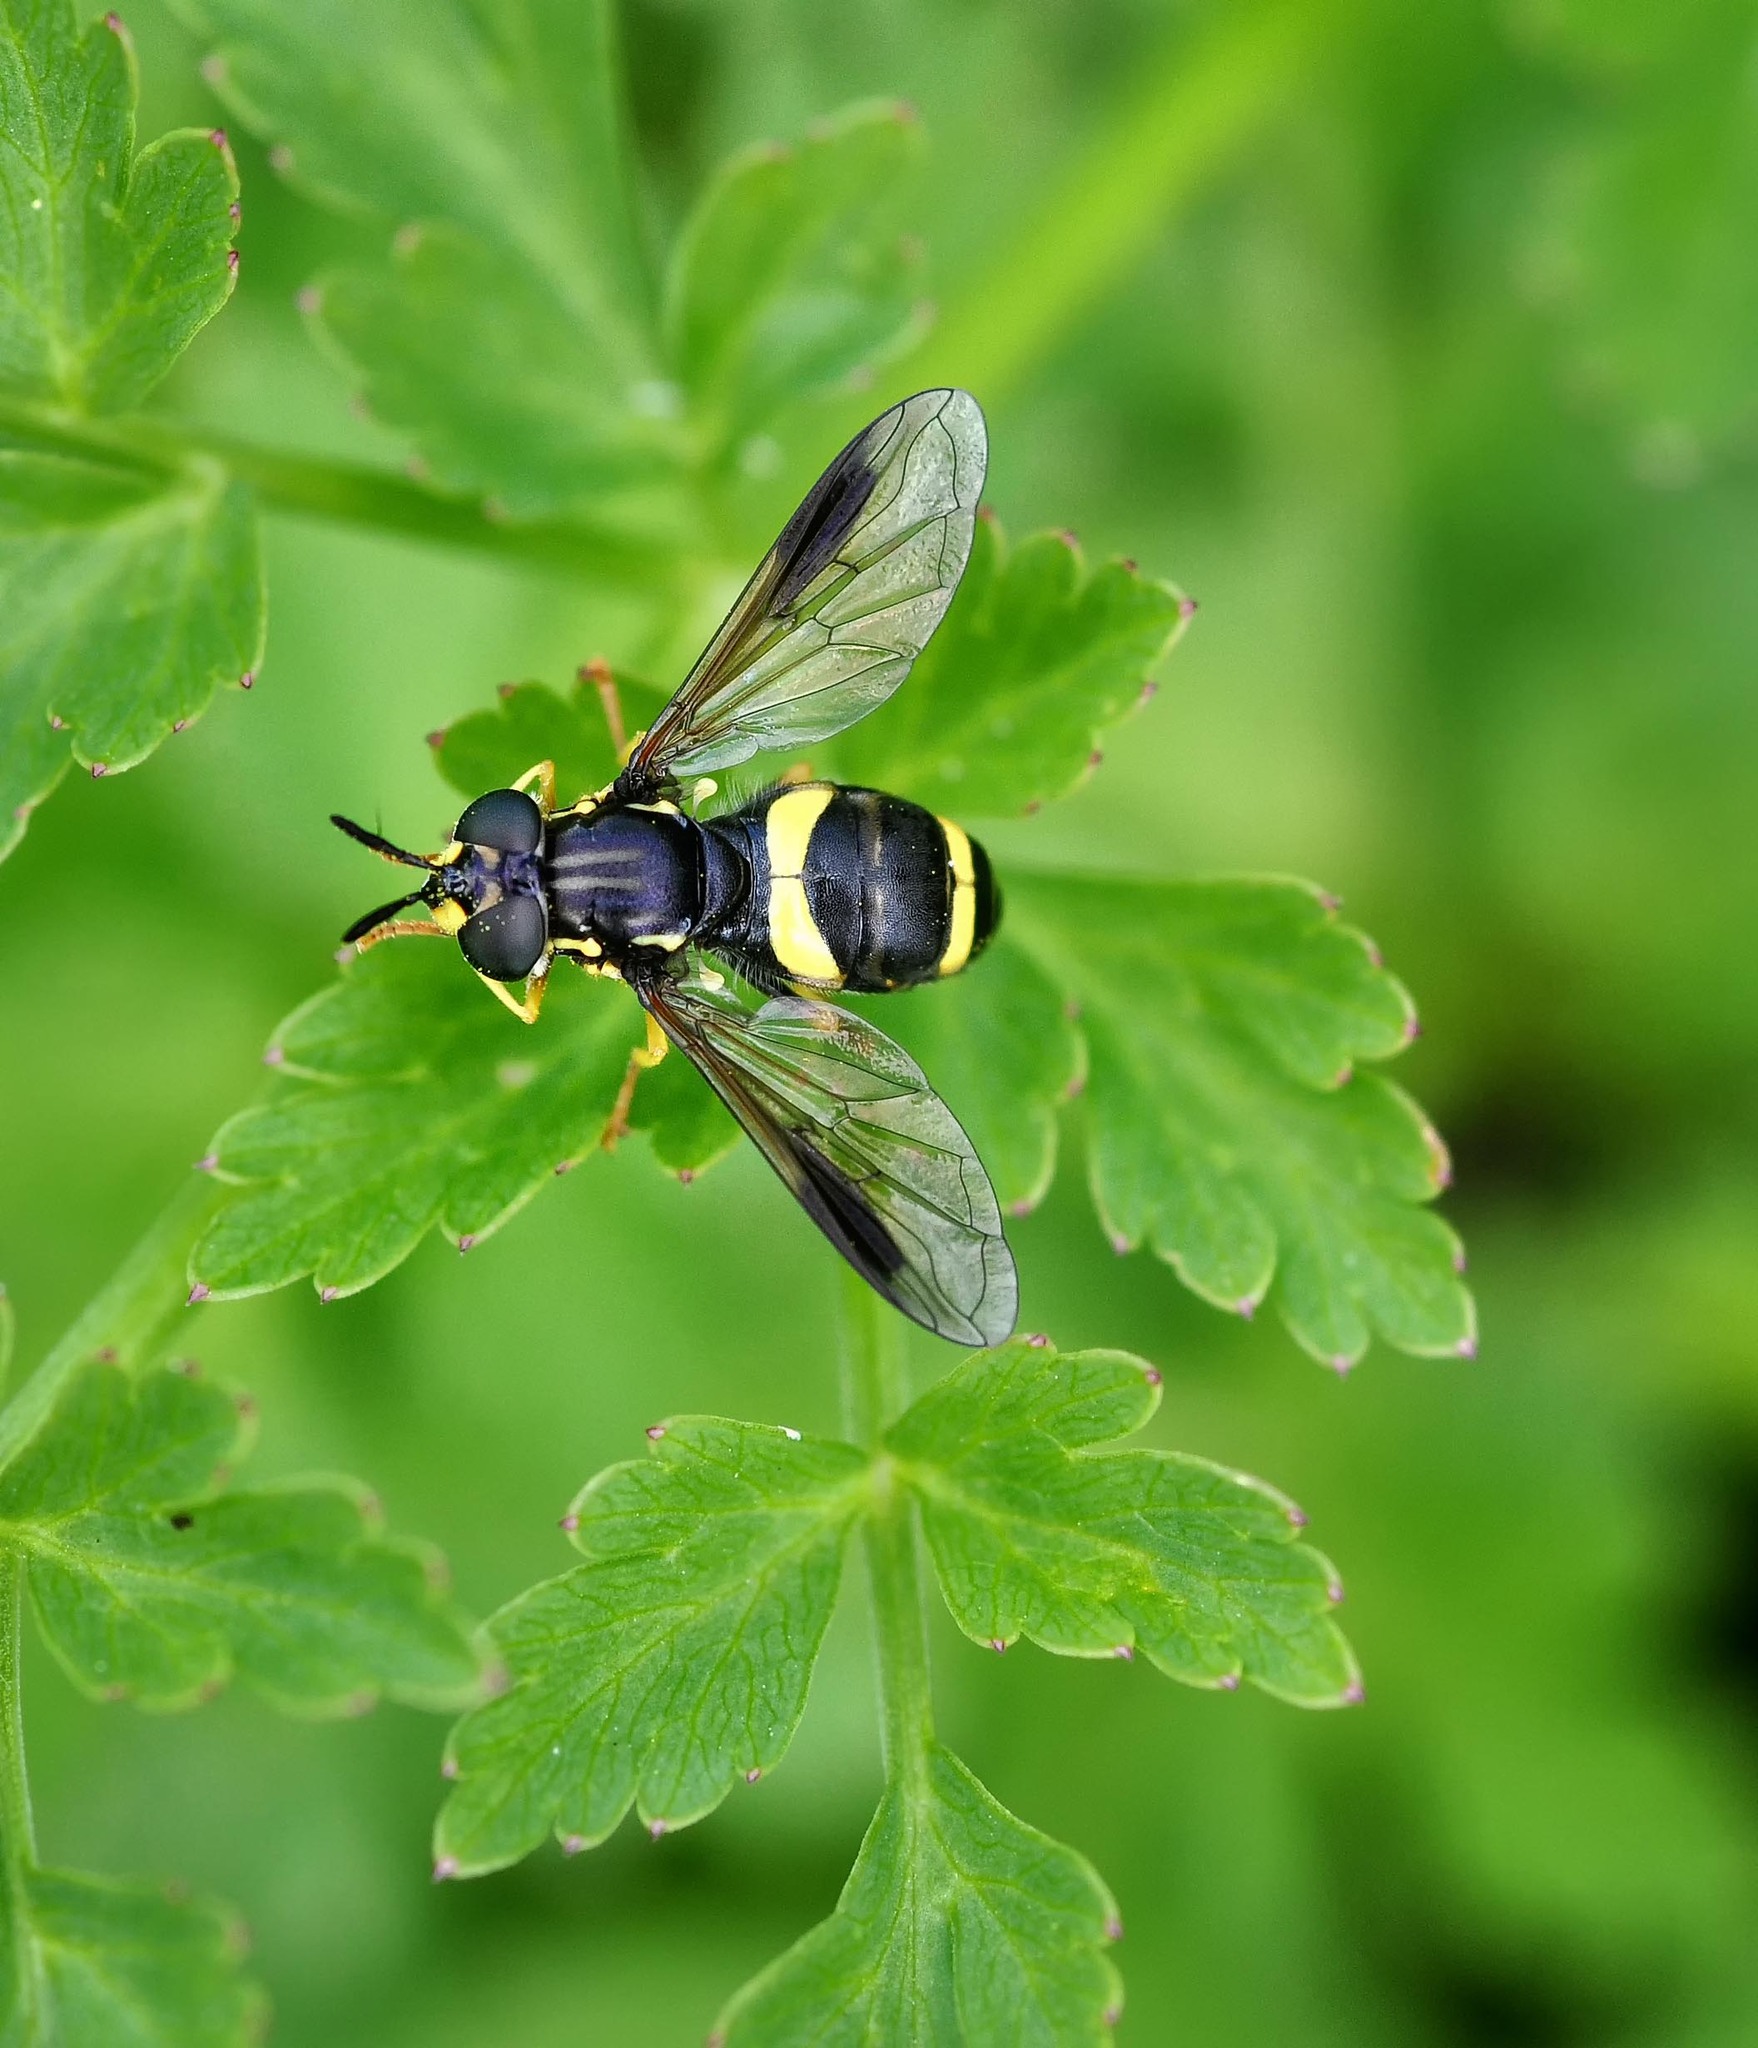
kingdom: Animalia
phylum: Arthropoda
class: Insecta
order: Diptera
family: Syrphidae
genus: Chrysotoxum
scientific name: Chrysotoxum bicincta
